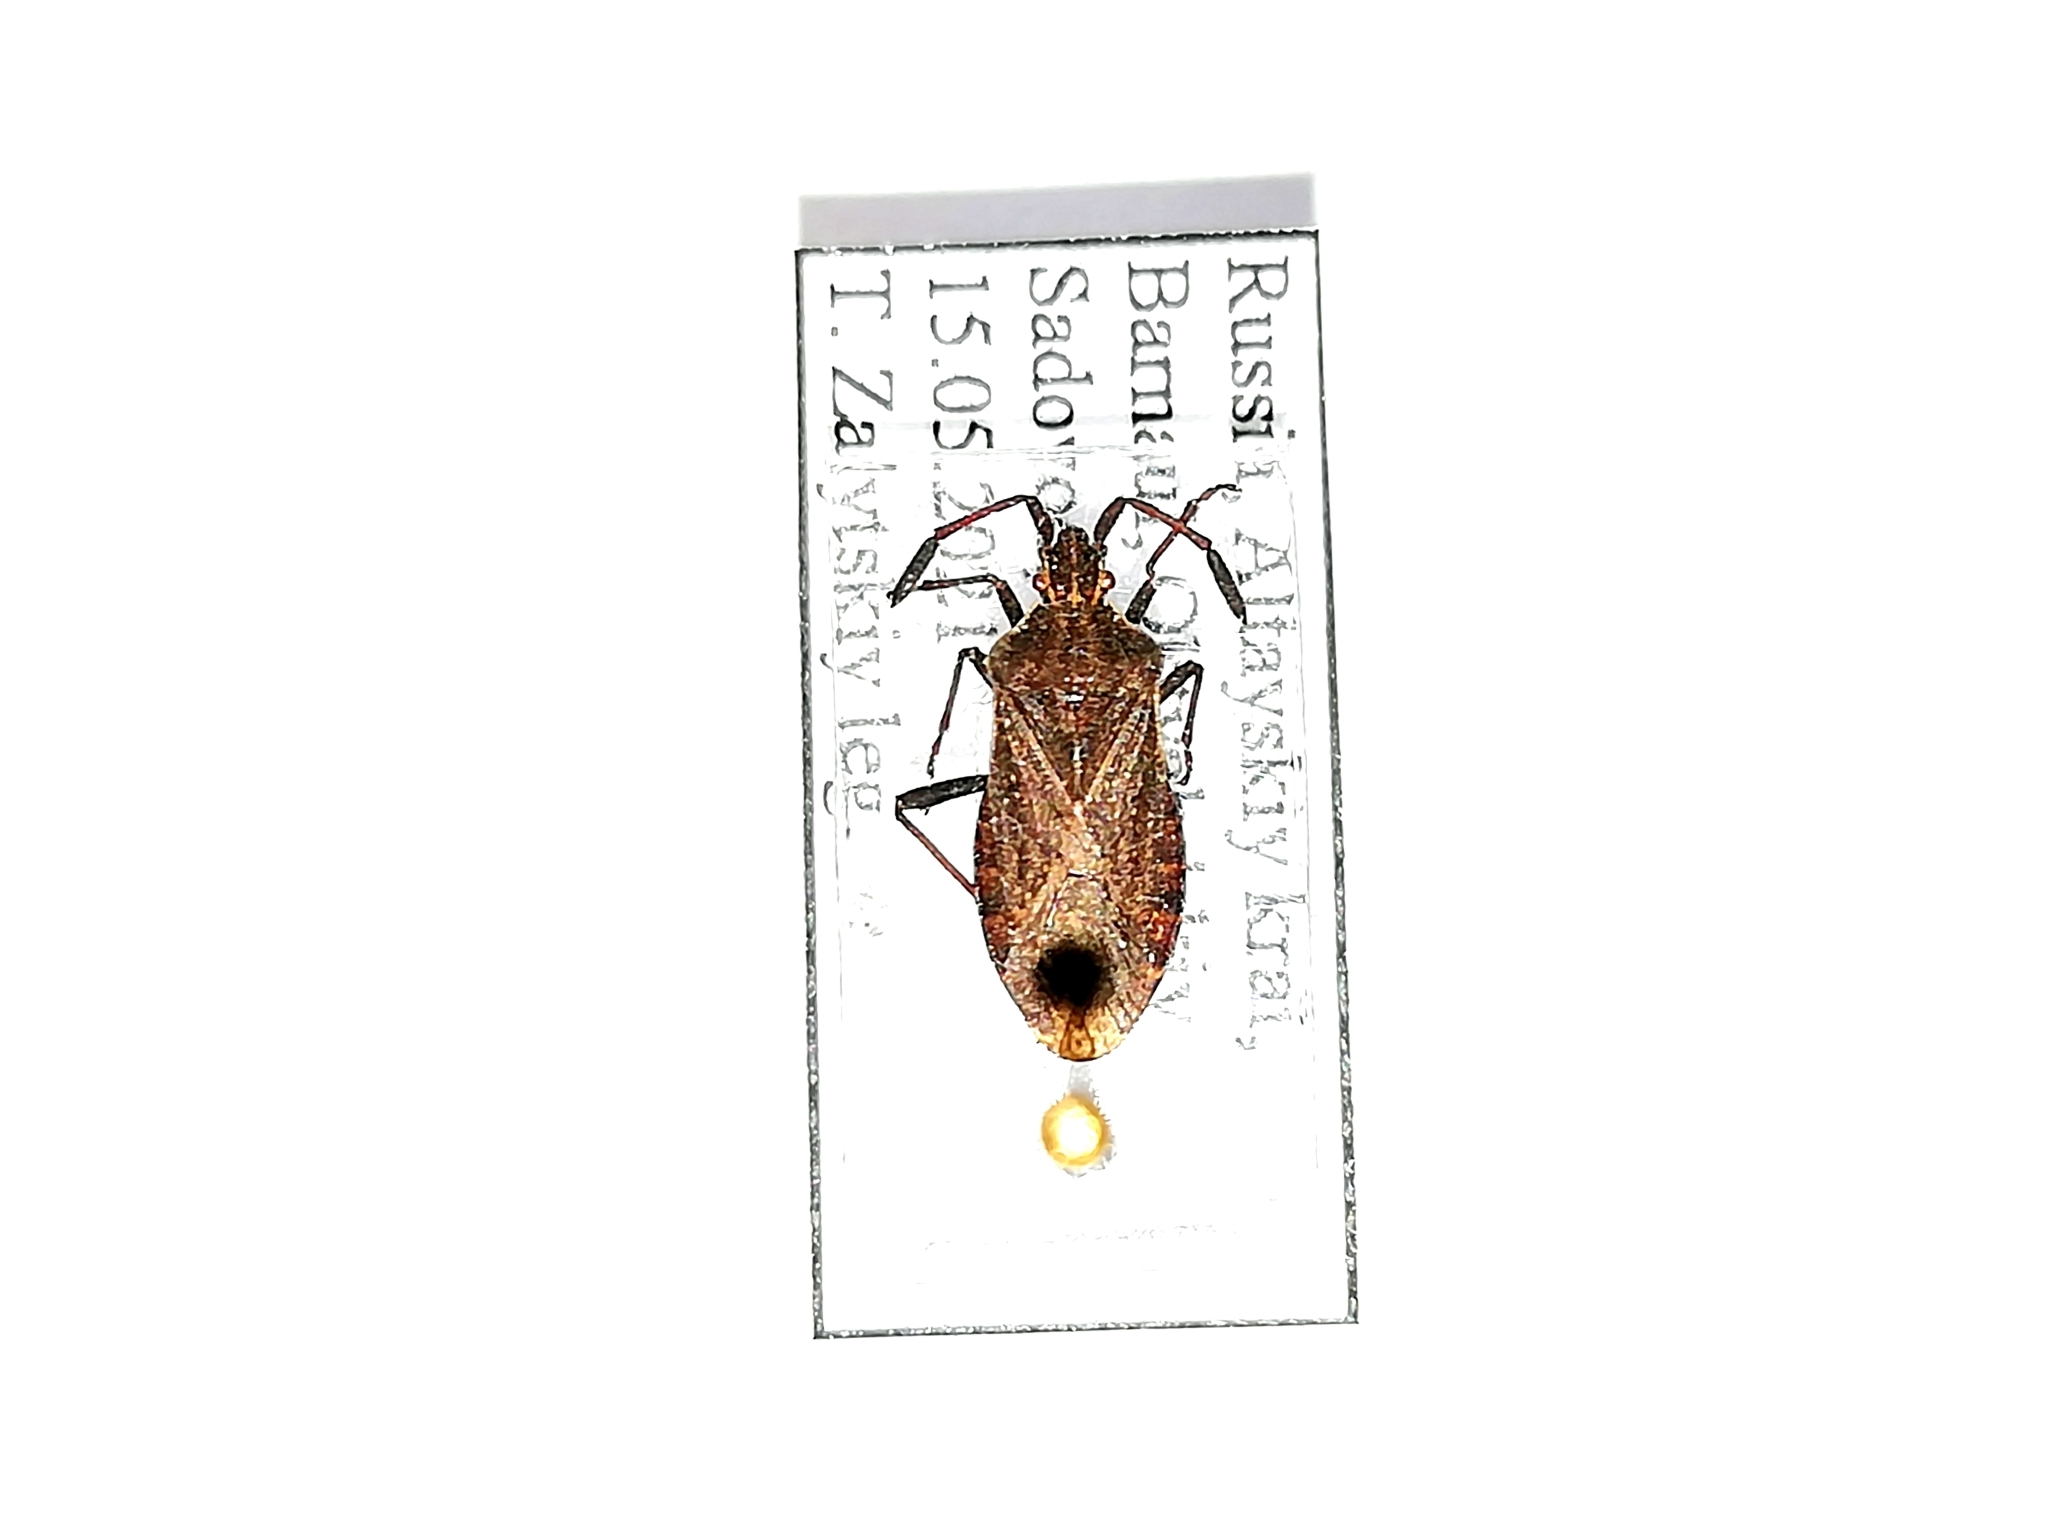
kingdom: Animalia
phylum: Arthropoda
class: Insecta
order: Hemiptera
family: Coreidae
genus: Ulmicola
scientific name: Ulmicola spinipes
